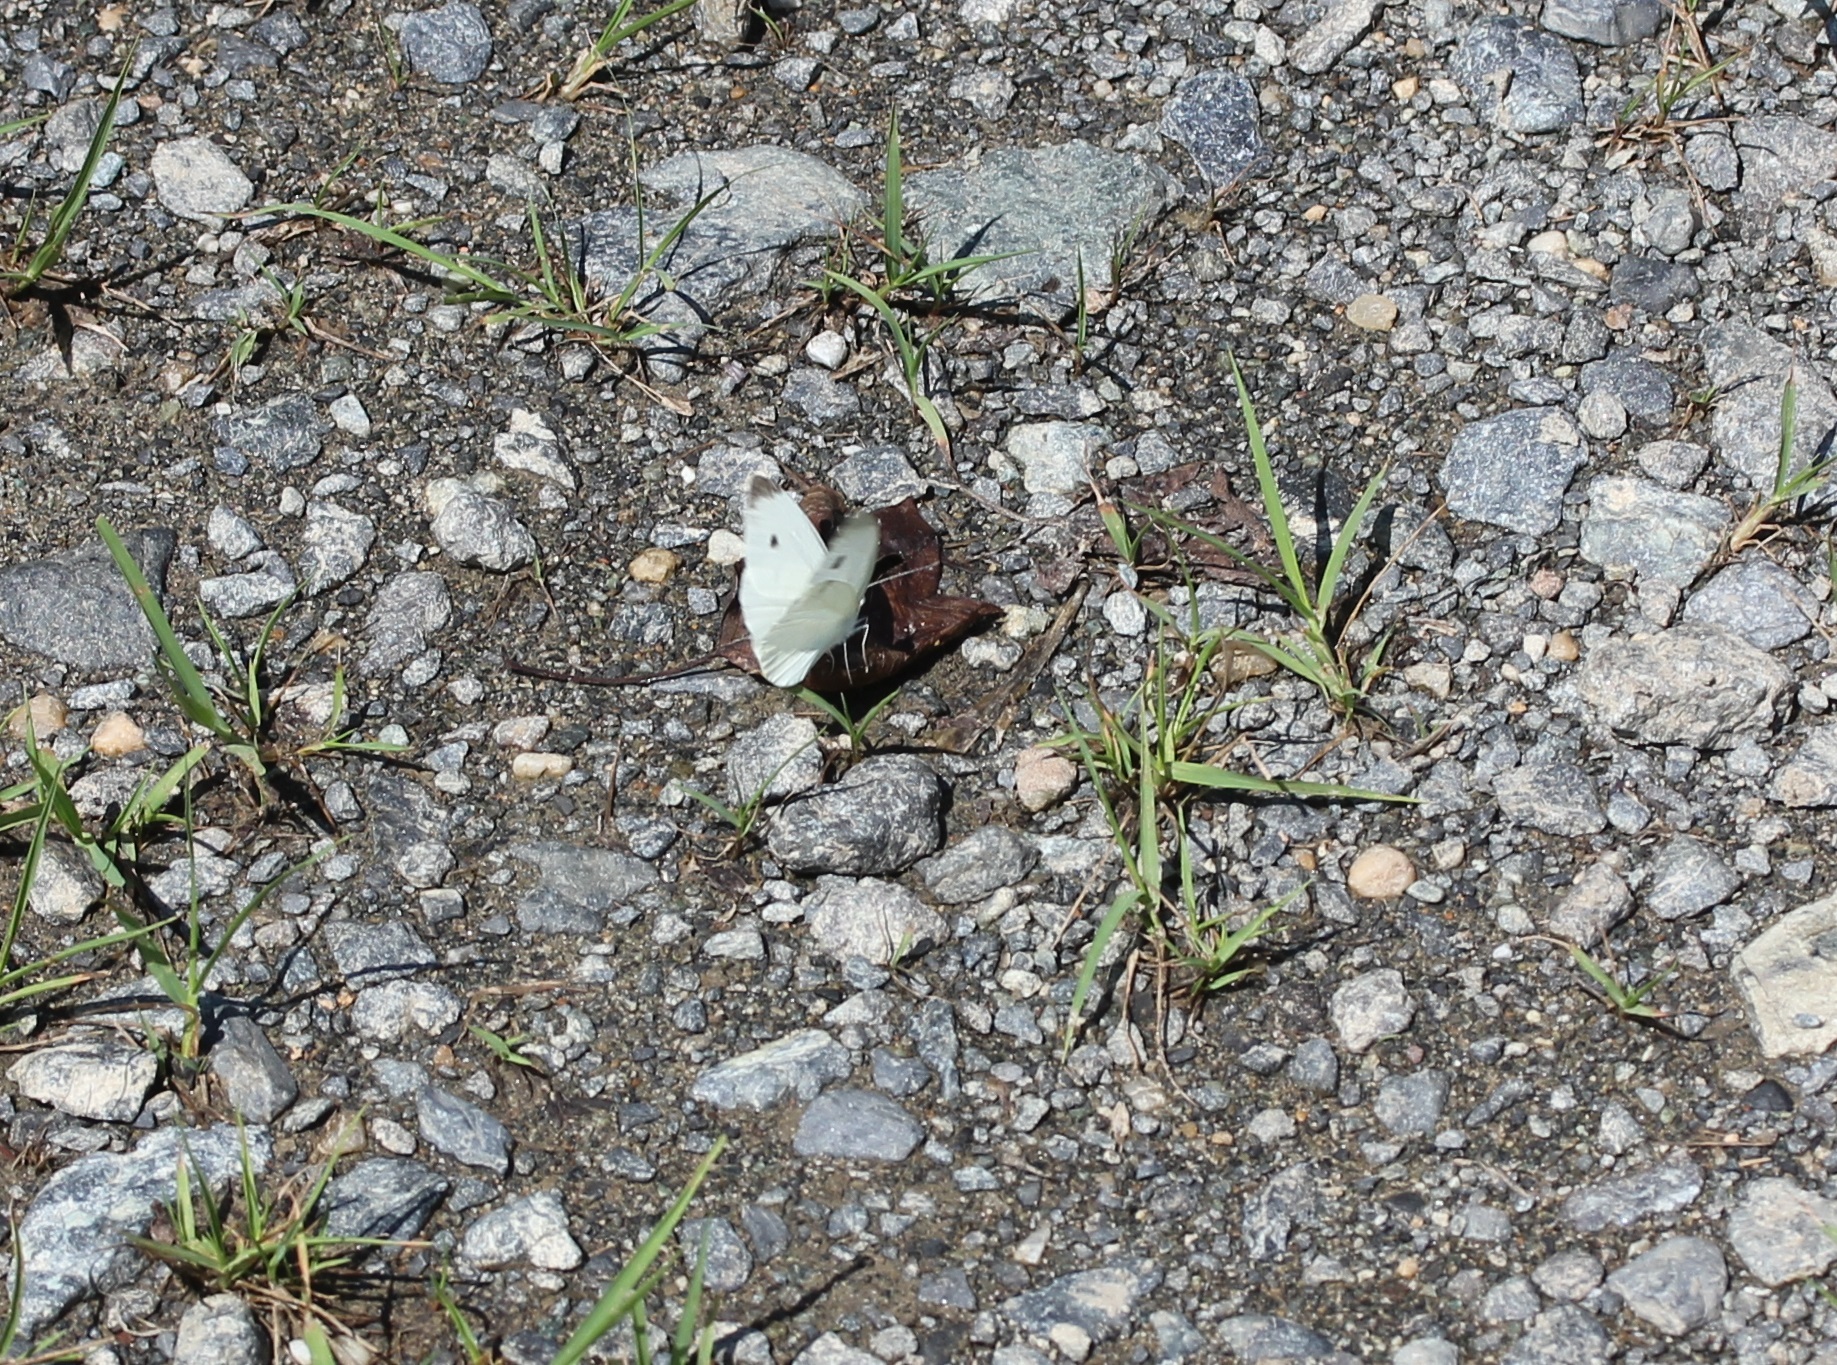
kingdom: Animalia
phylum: Arthropoda
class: Insecta
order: Lepidoptera
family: Pieridae
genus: Pieris
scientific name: Pieris rapae
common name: Small white
